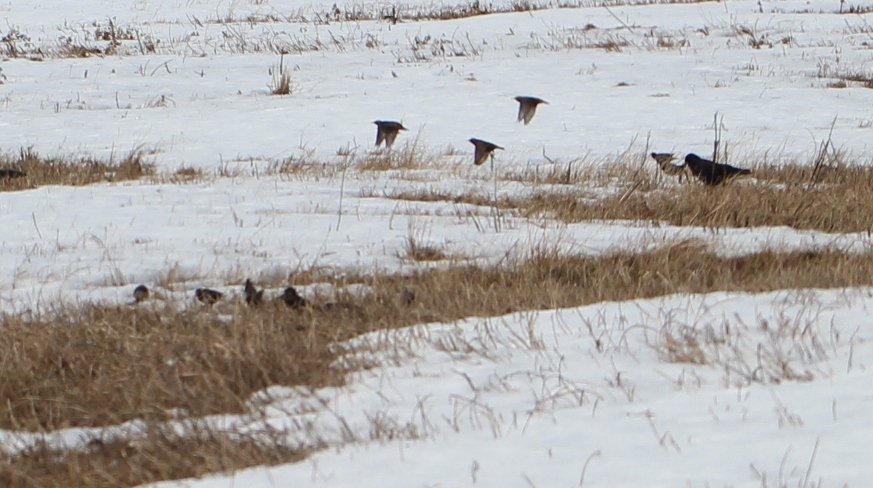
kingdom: Animalia
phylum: Chordata
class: Aves
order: Passeriformes
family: Sturnidae
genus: Sturnus
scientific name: Sturnus vulgaris
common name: Common starling
